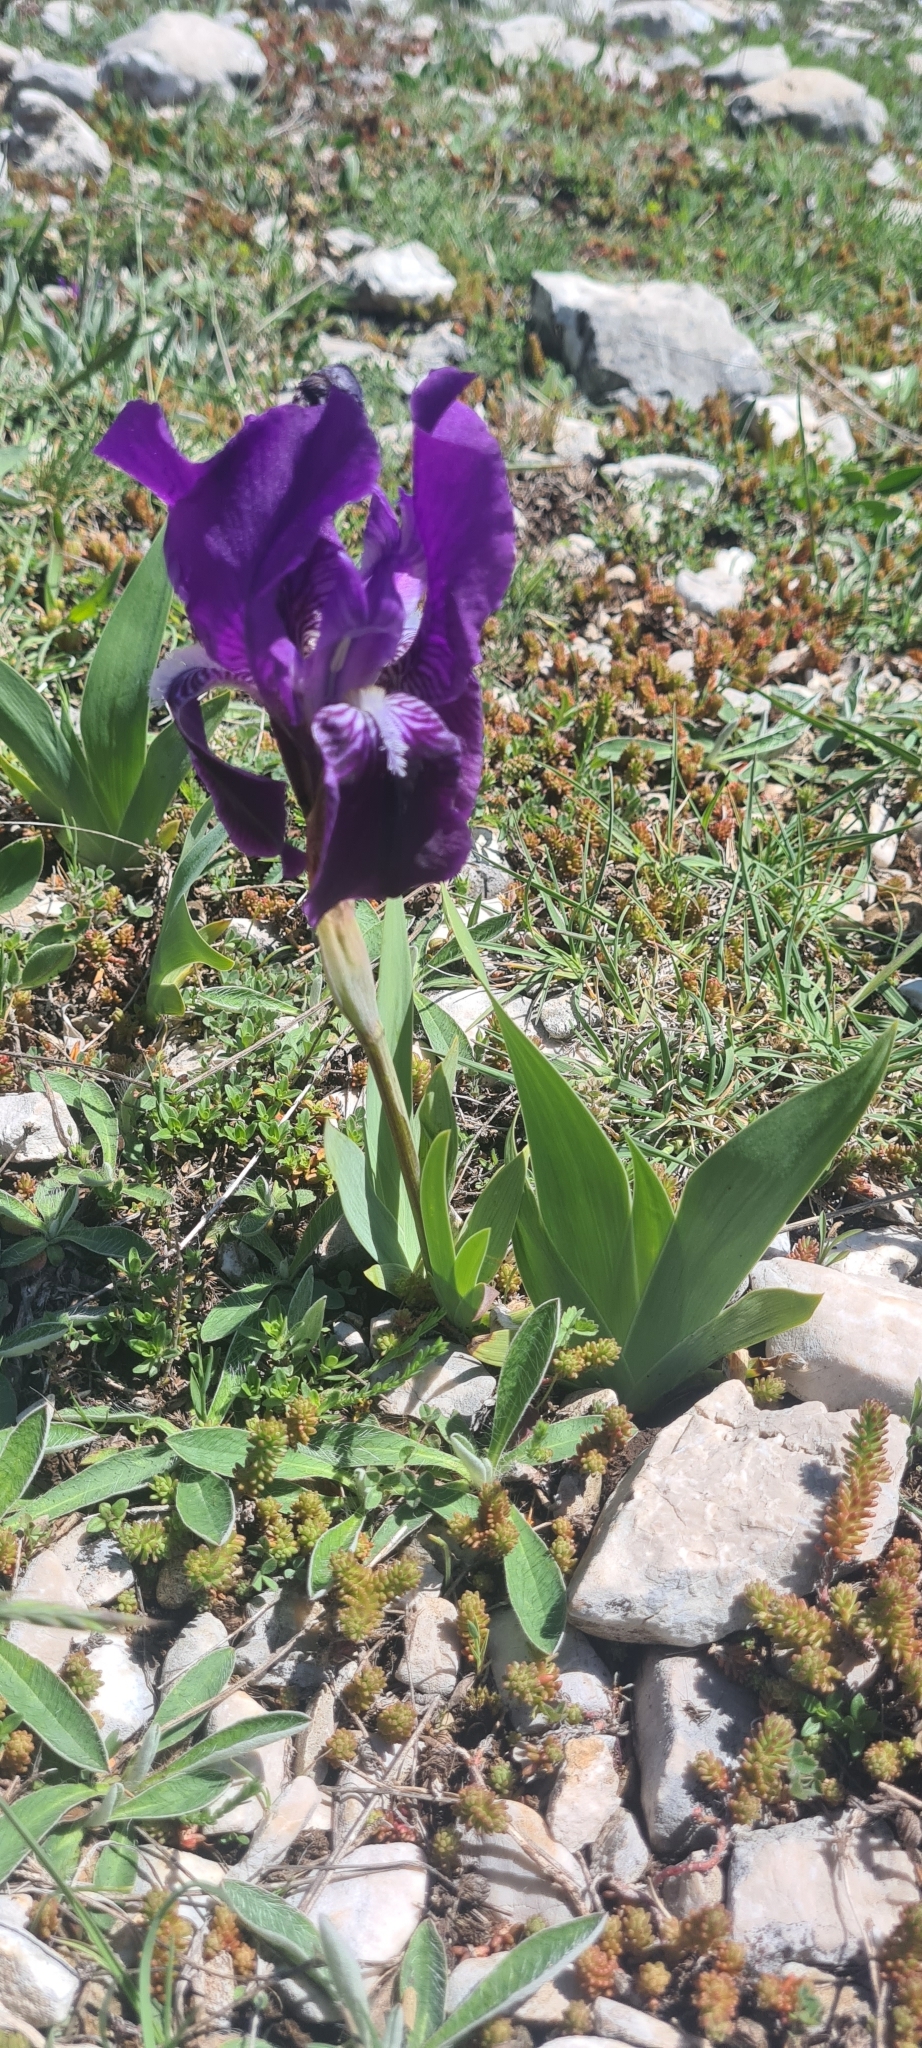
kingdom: Plantae
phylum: Tracheophyta
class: Liliopsida
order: Asparagales
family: Iridaceae
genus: Iris
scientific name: Iris sabina
